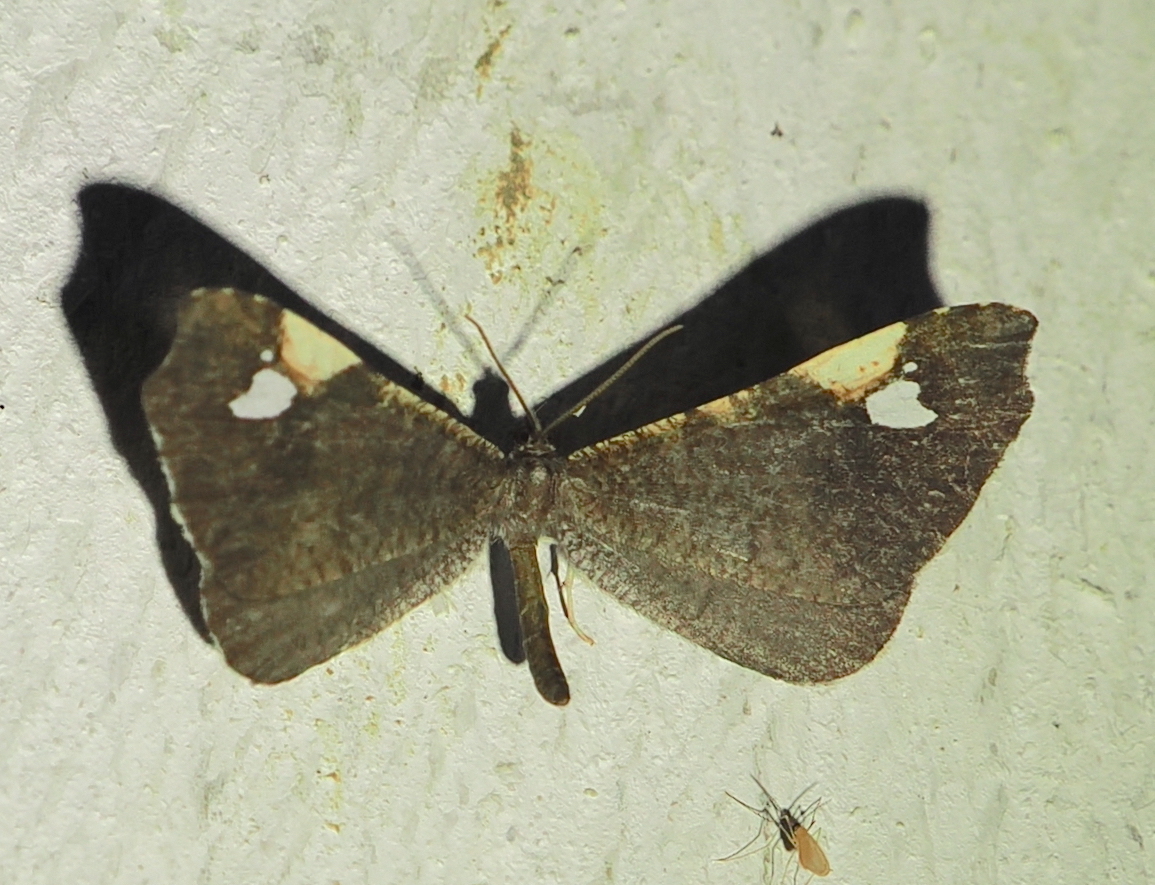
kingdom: Animalia
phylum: Arthropoda
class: Insecta
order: Lepidoptera
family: Hedylidae
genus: Macrosoma
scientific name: Macrosoma subornata
